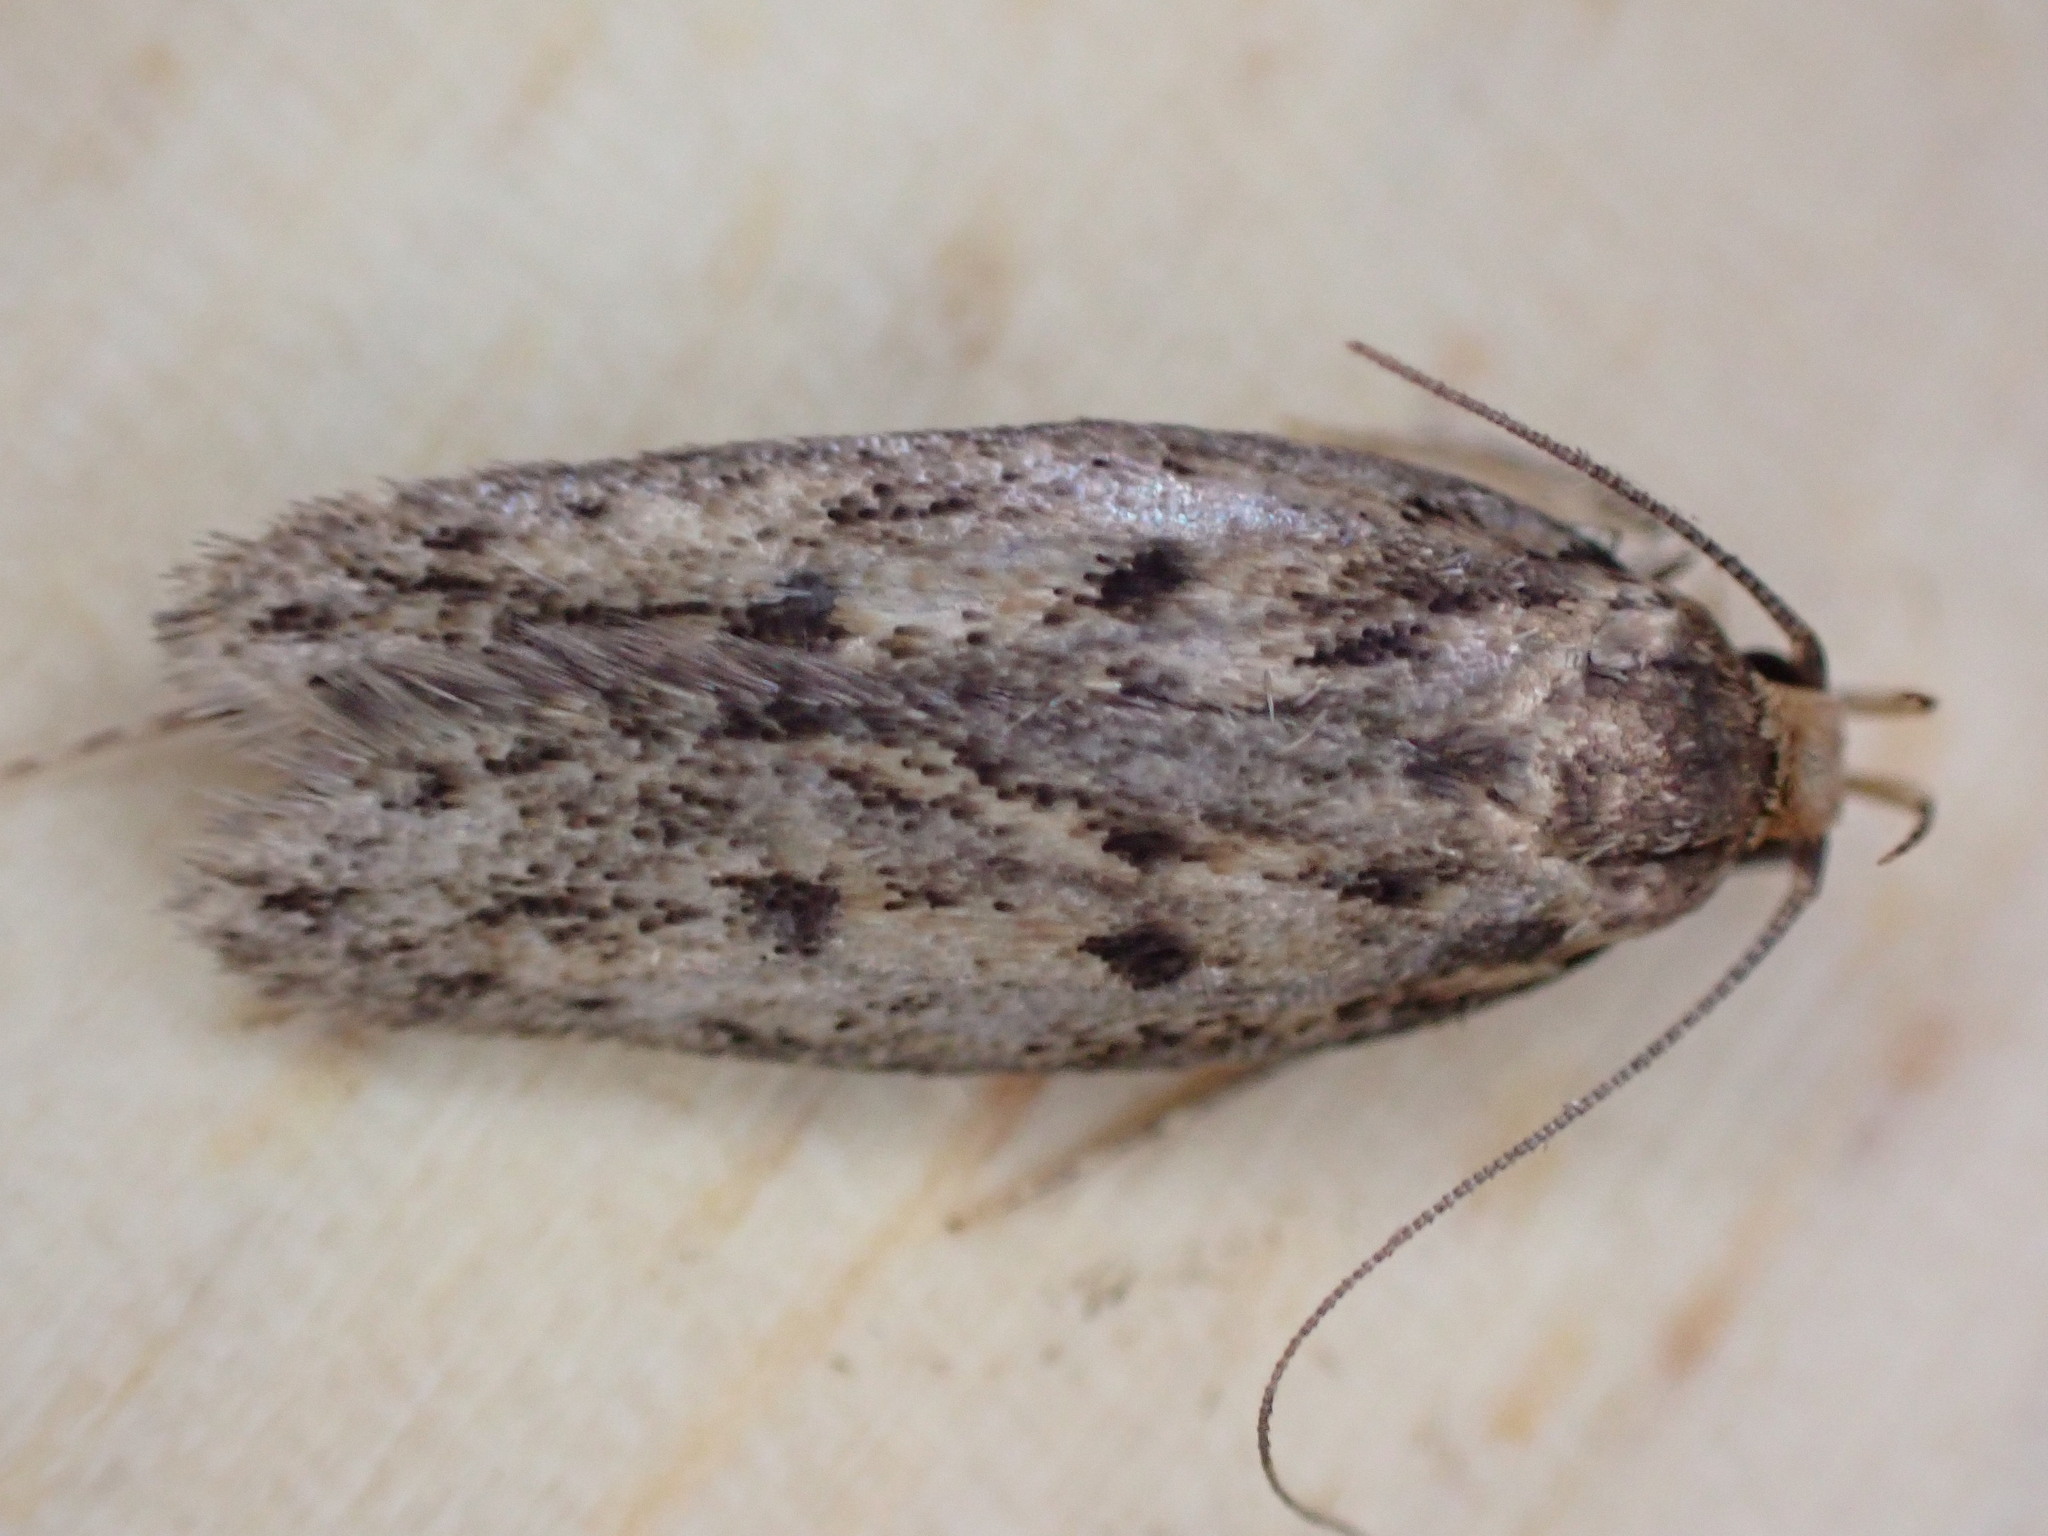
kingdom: Animalia
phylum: Arthropoda
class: Insecta
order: Lepidoptera
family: Oecophoridae
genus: Hofmannophila
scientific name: Hofmannophila pseudospretella
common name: Brown house moth
